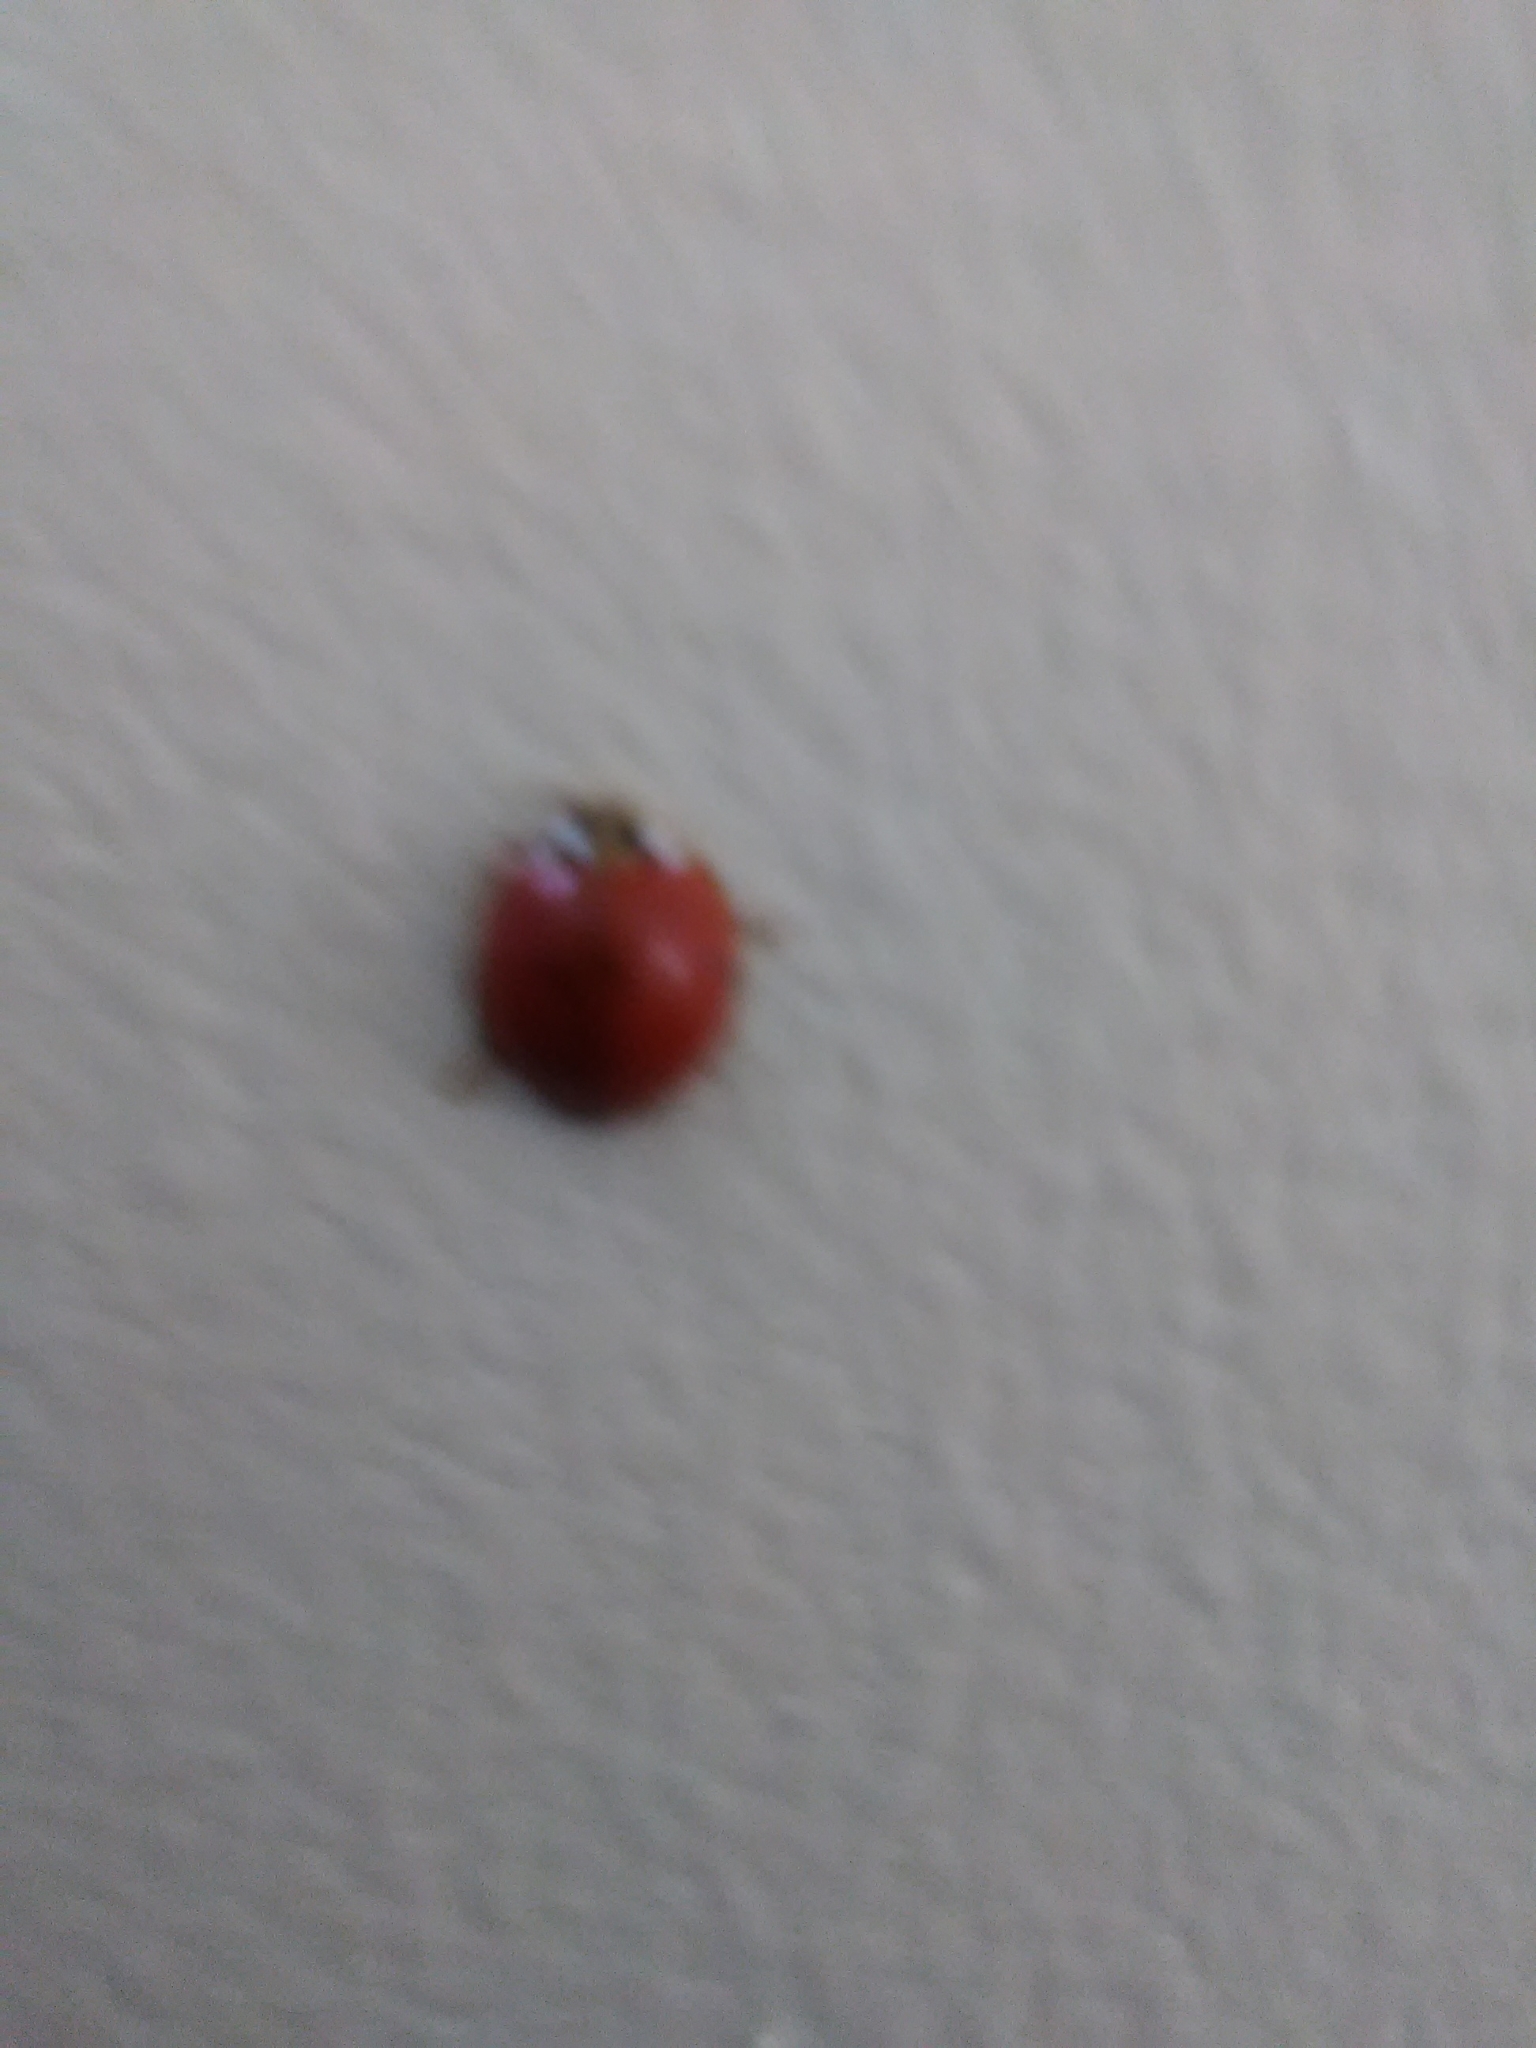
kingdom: Animalia
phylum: Arthropoda
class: Insecta
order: Coleoptera
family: Coccinellidae
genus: Harmonia
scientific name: Harmonia axyridis
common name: Harlequin ladybird
